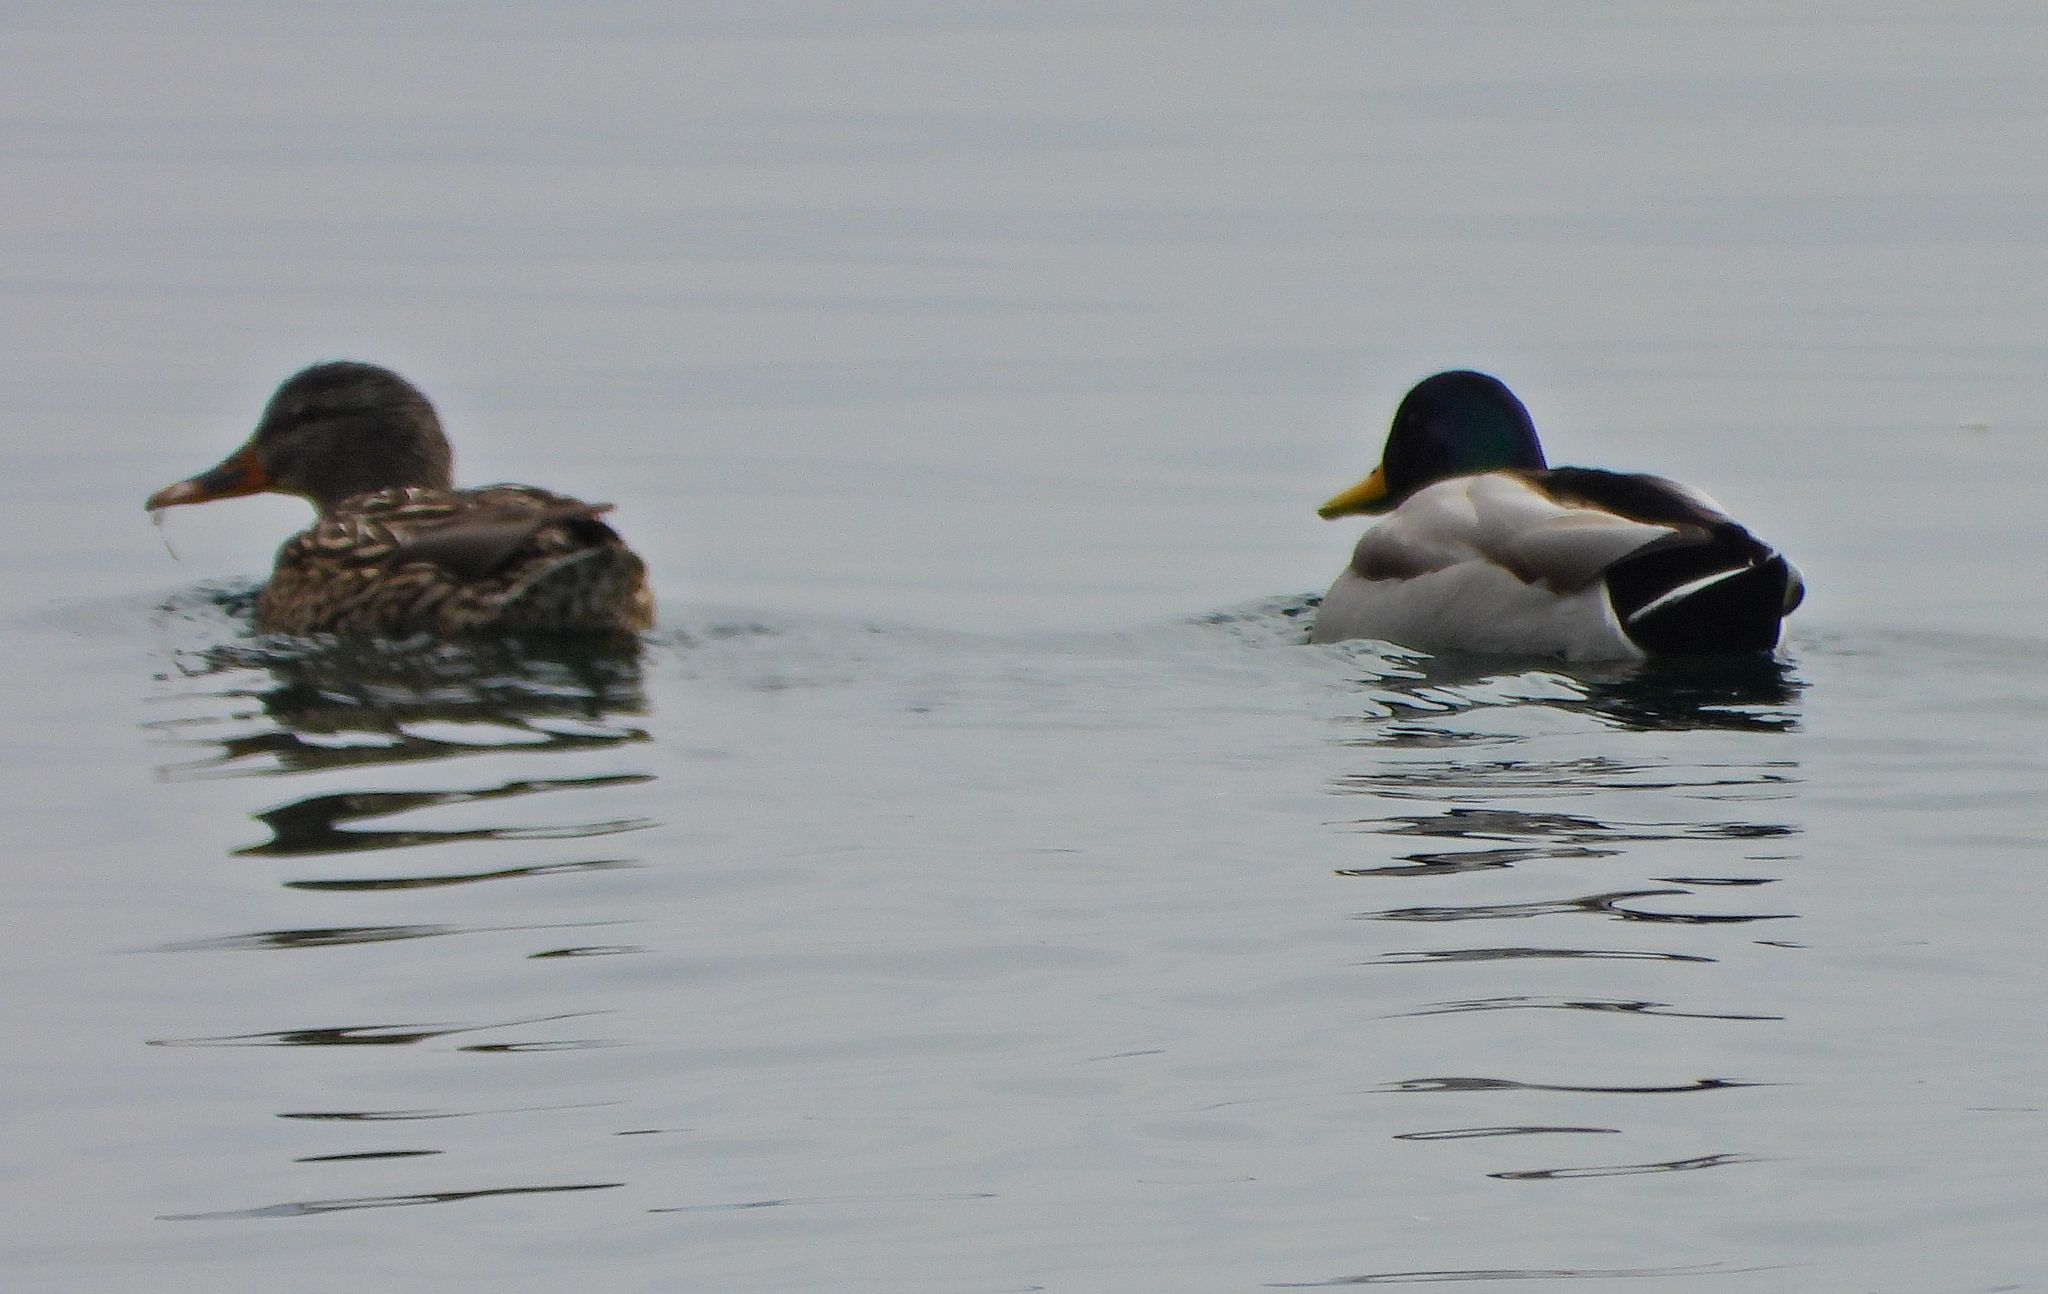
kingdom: Animalia
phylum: Chordata
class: Aves
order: Anseriformes
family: Anatidae
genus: Anas
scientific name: Anas platyrhynchos
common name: Mallard
